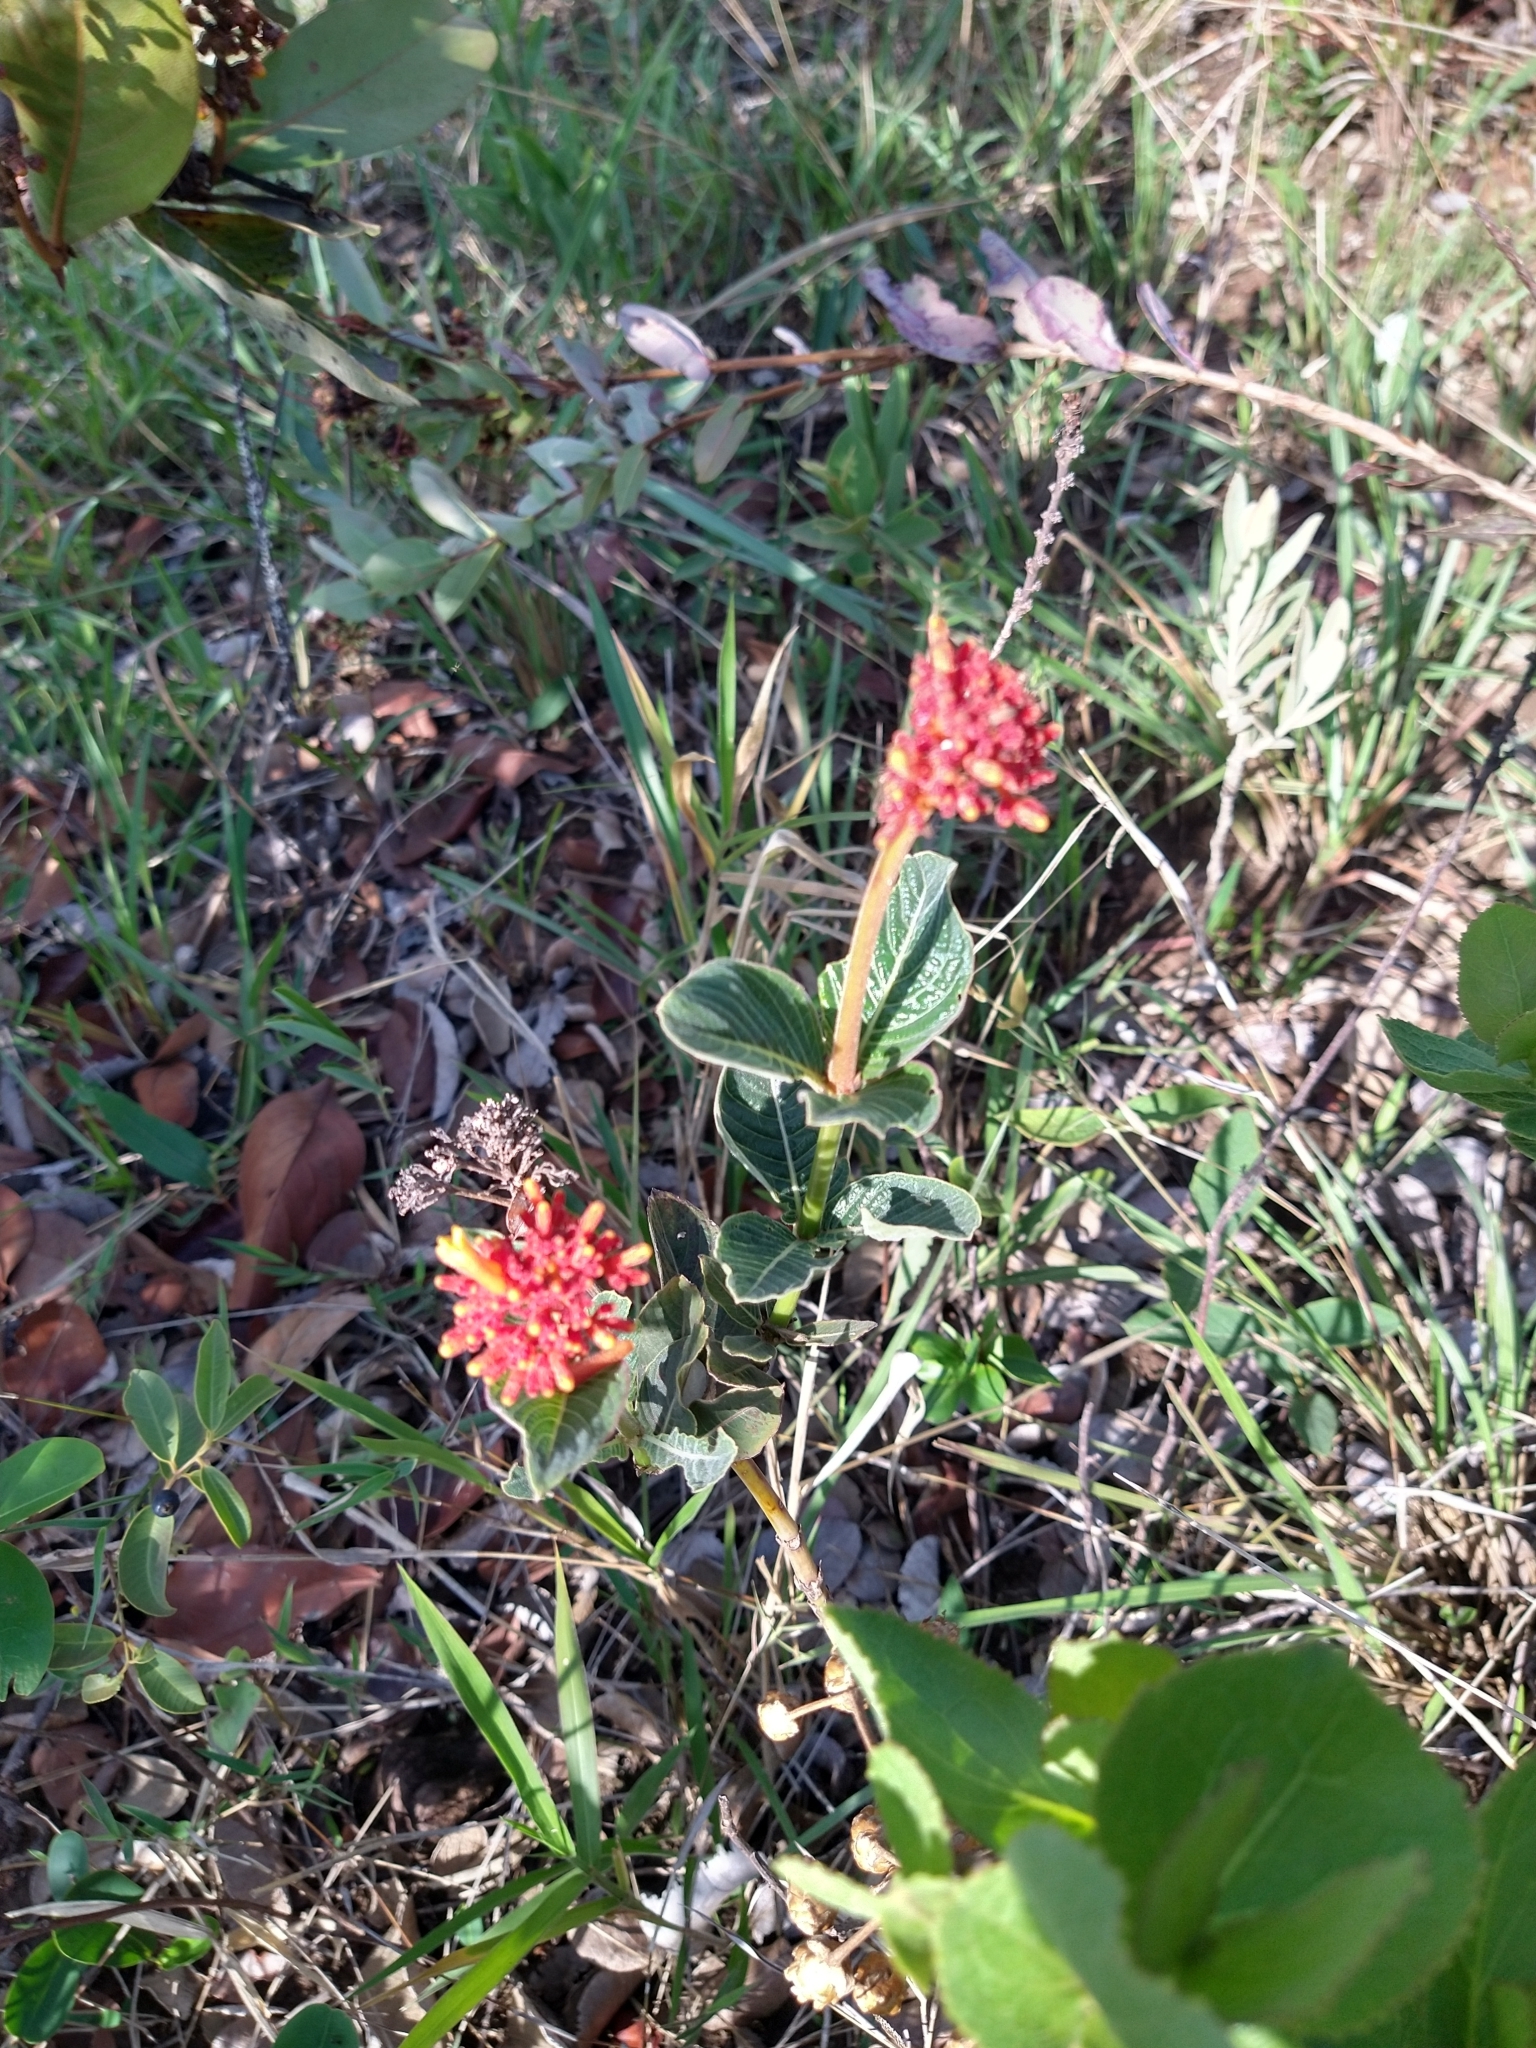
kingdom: Plantae
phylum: Tracheophyta
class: Magnoliopsida
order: Gentianales
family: Rubiaceae
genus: Palicourea
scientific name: Palicourea officinalis
